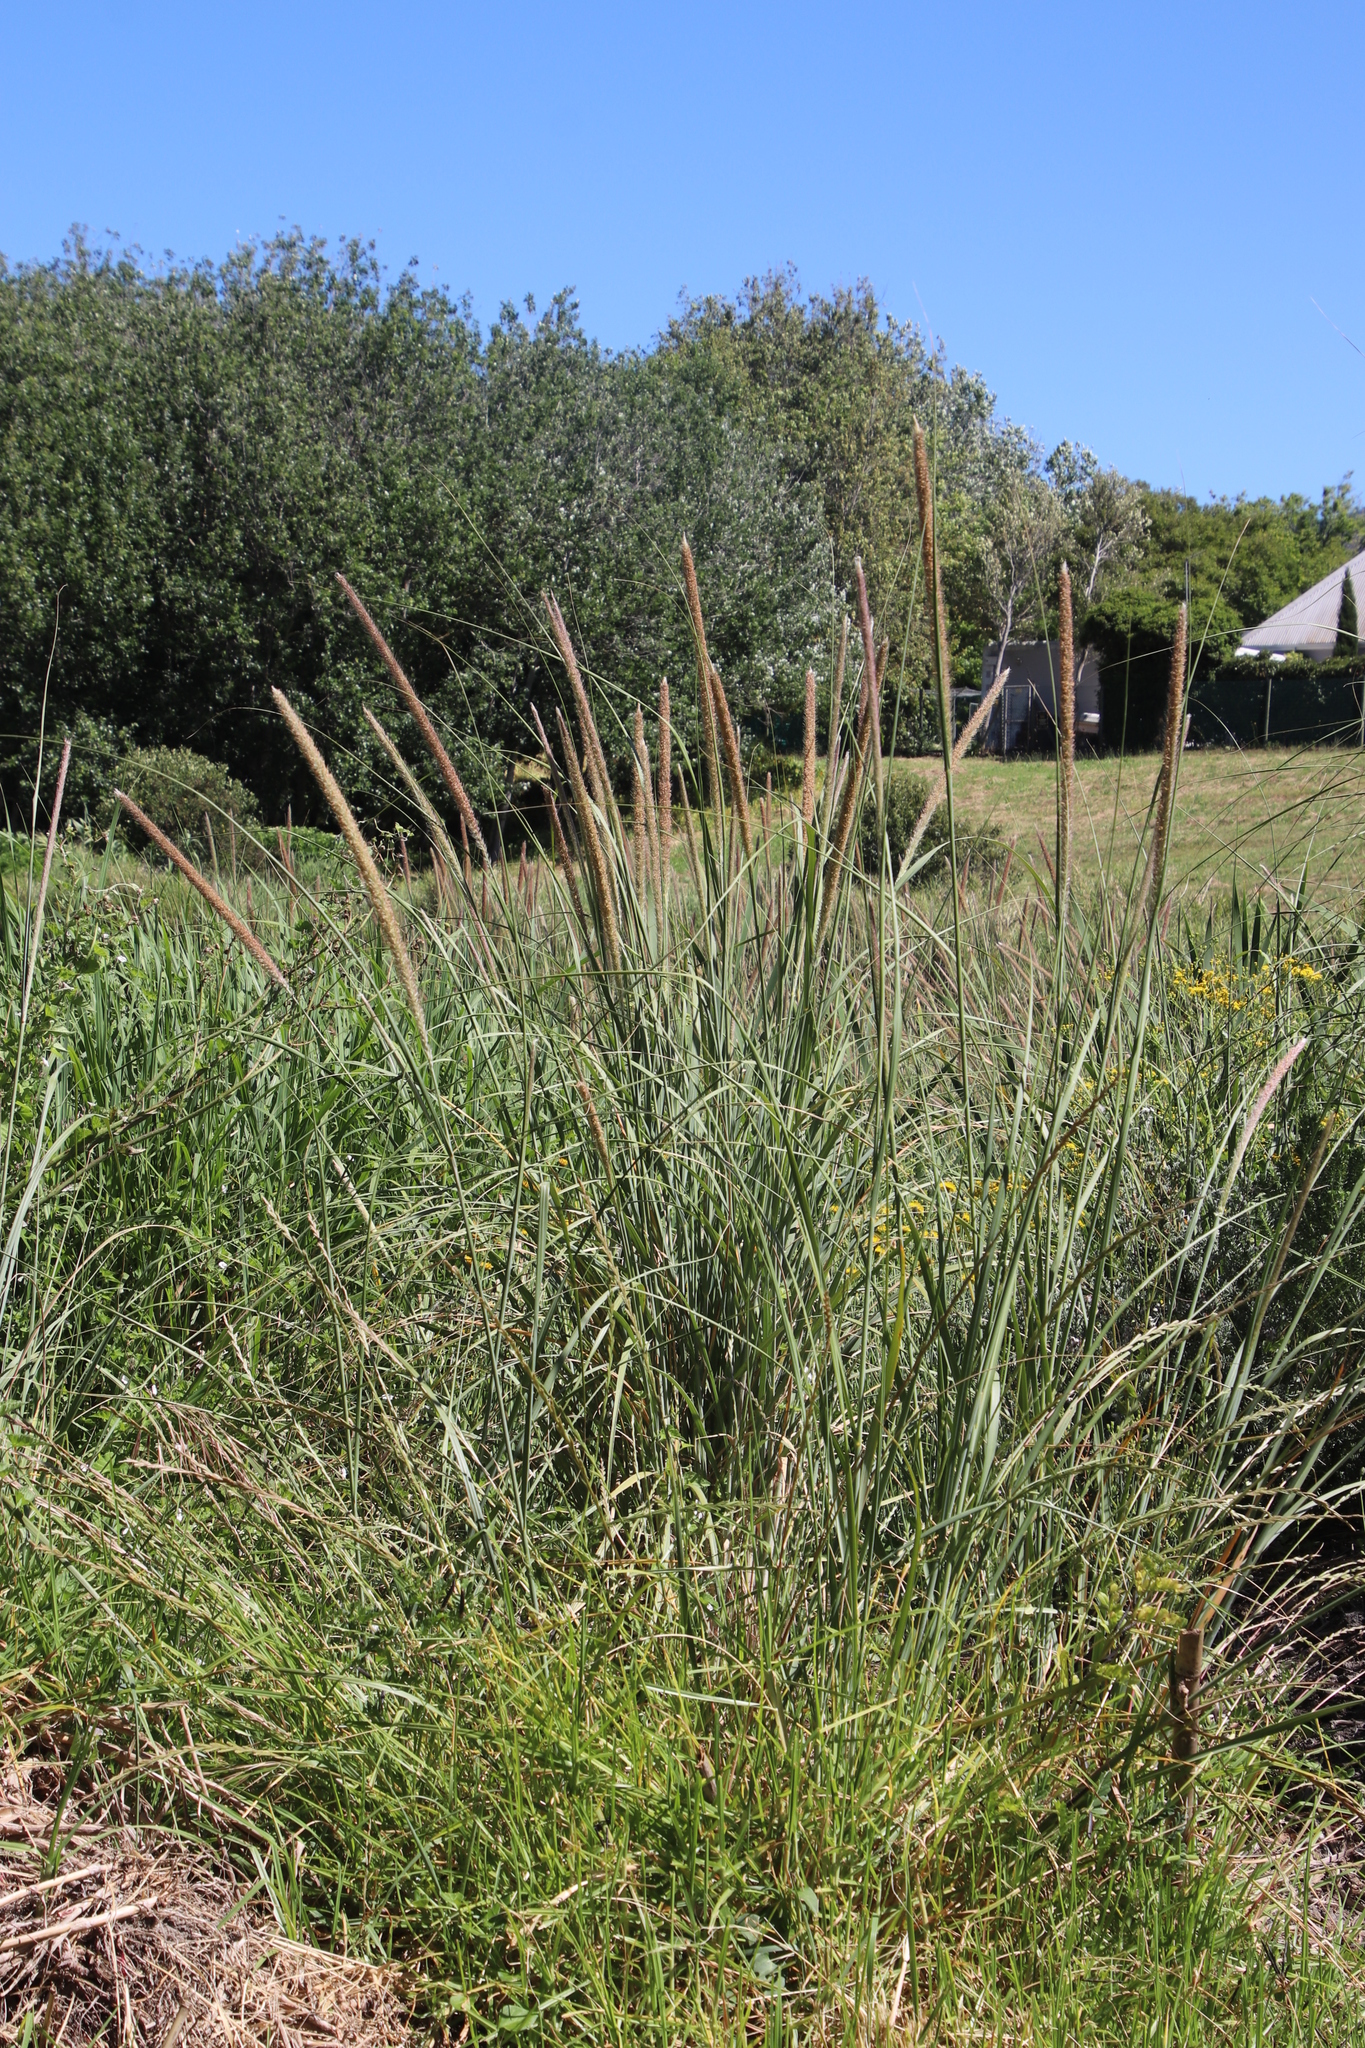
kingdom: Plantae
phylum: Tracheophyta
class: Liliopsida
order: Poales
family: Poaceae
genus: Cenchrus
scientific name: Cenchrus caudatus
